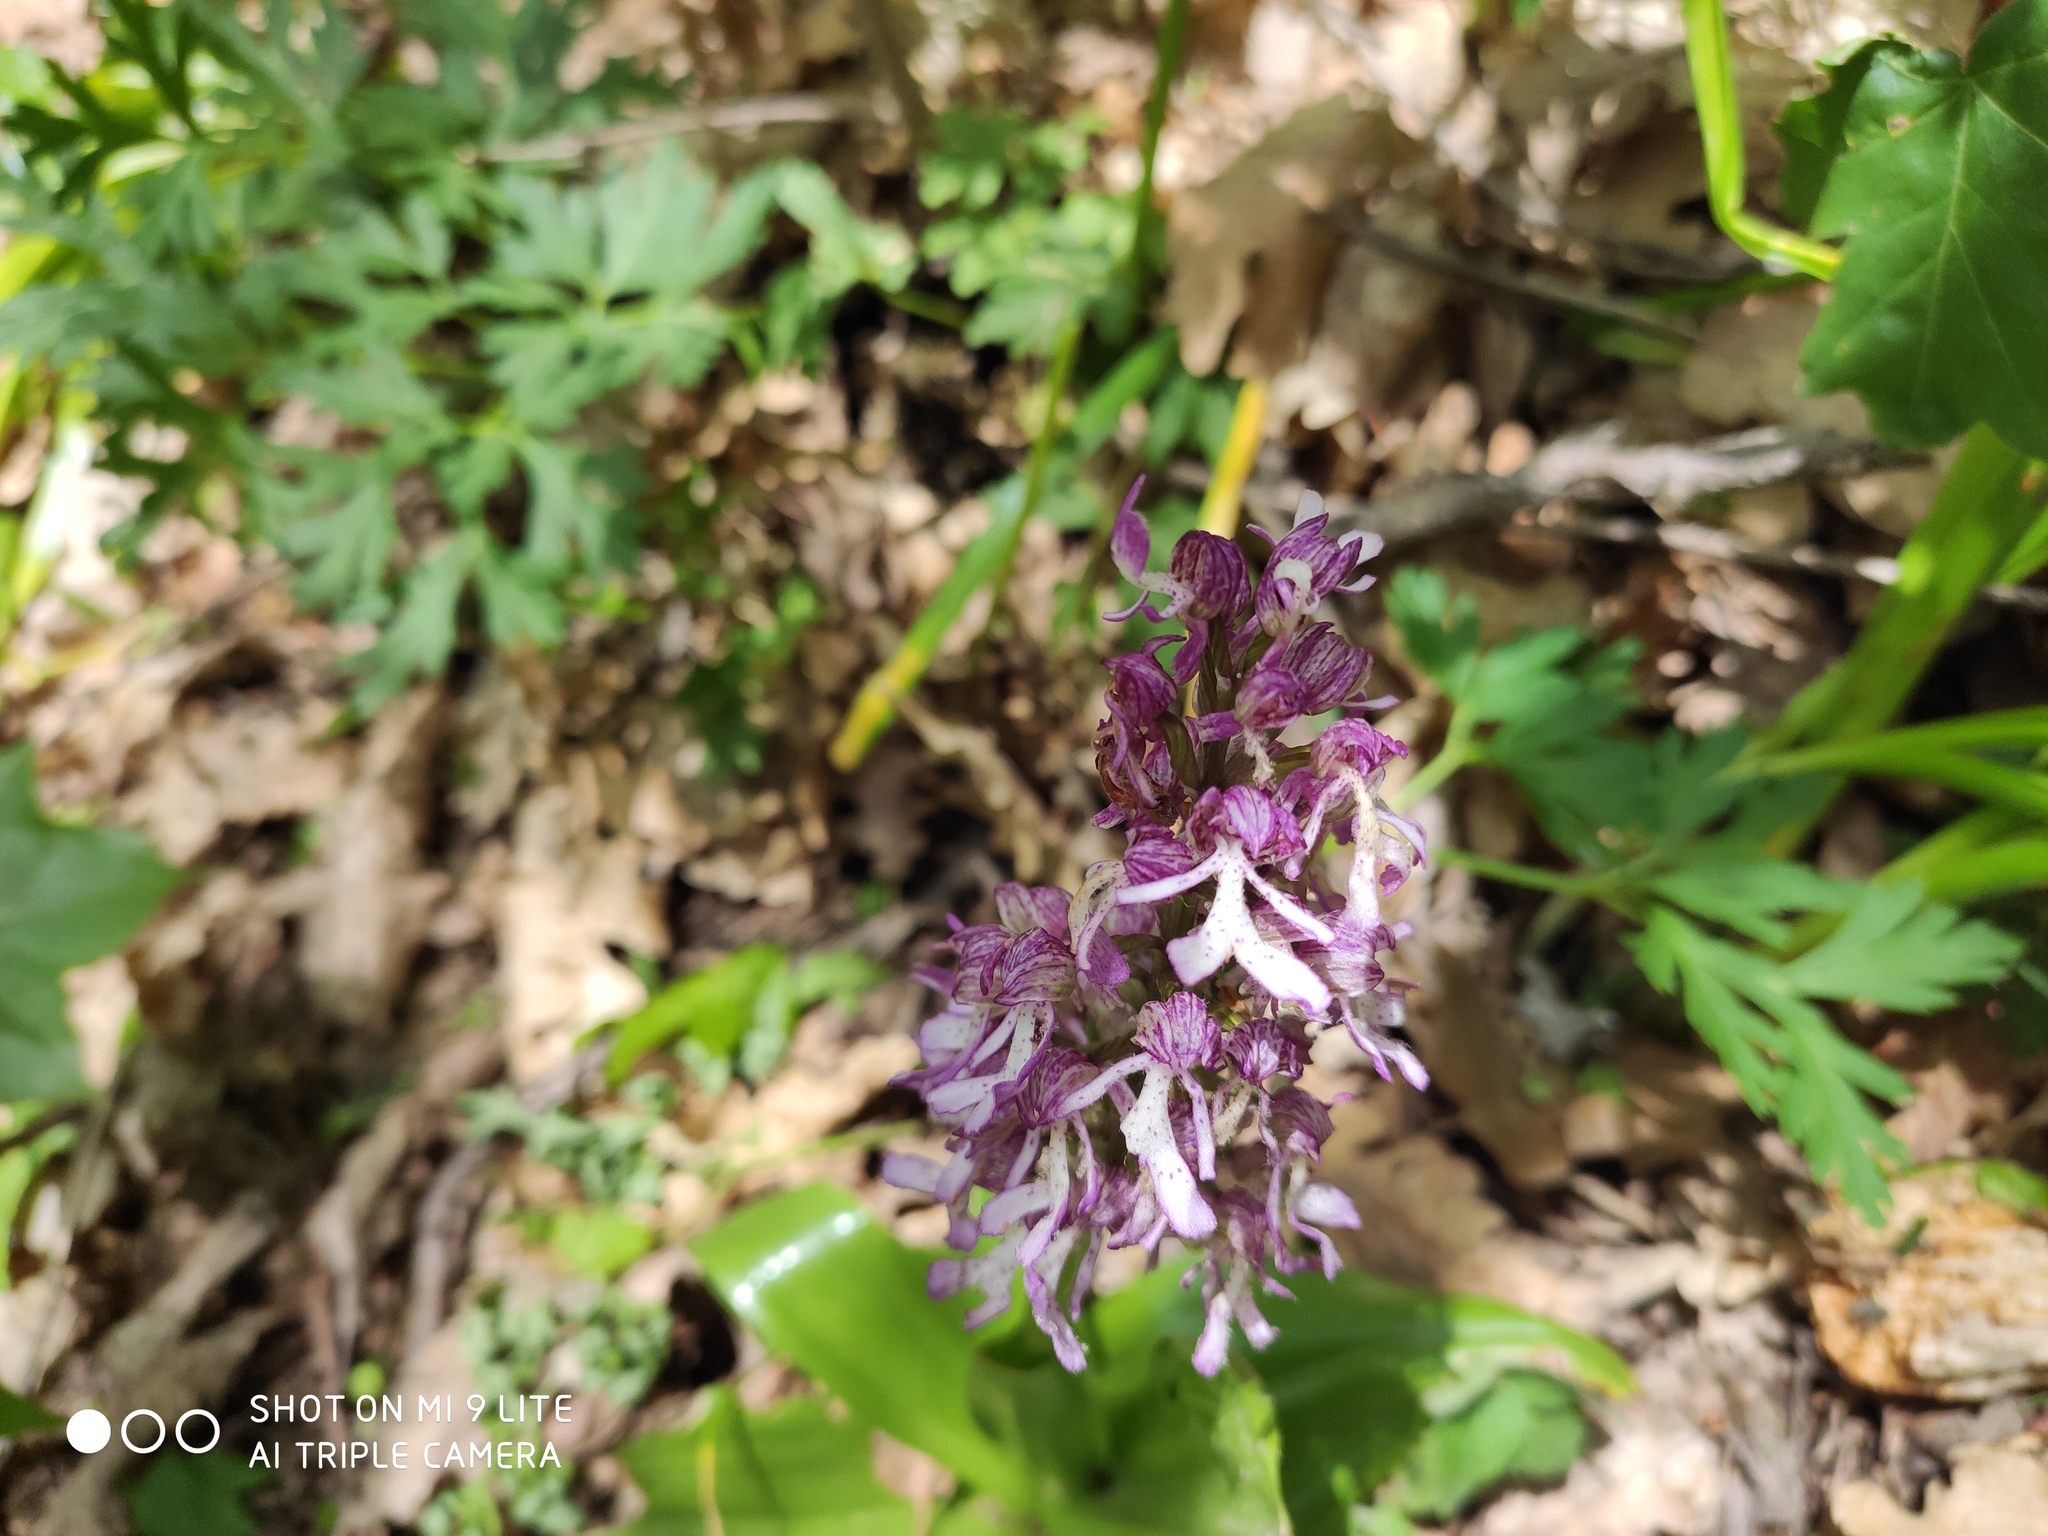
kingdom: Plantae
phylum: Tracheophyta
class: Liliopsida
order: Asparagales
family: Orchidaceae
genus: Orchis
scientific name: Orchis purpurea
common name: Lady orchid
